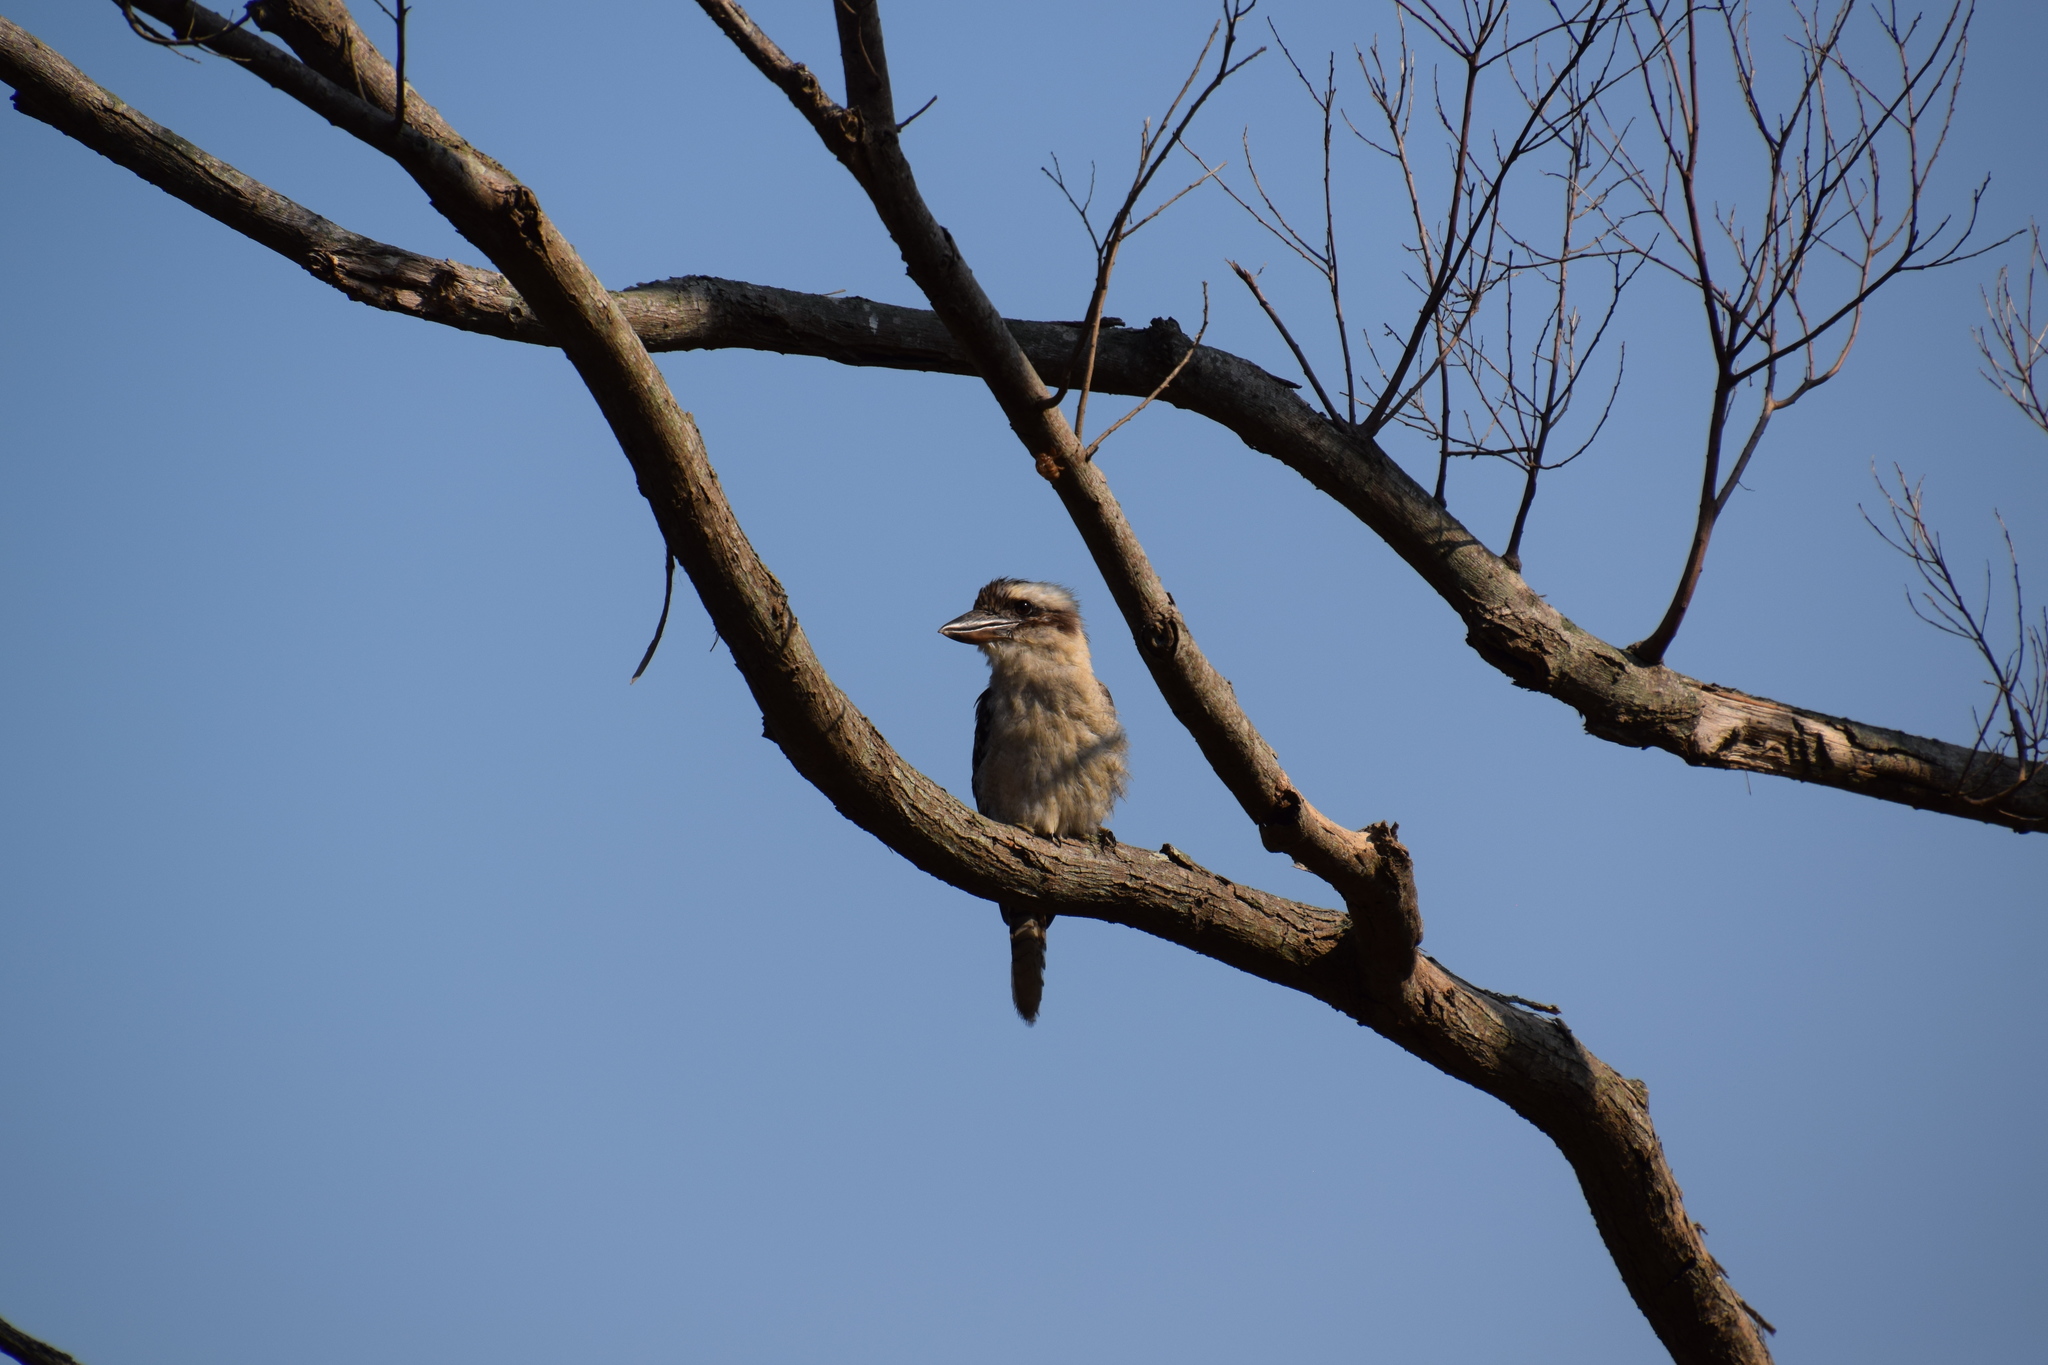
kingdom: Animalia
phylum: Chordata
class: Aves
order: Coraciiformes
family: Alcedinidae
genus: Dacelo
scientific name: Dacelo novaeguineae
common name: Laughing kookaburra
